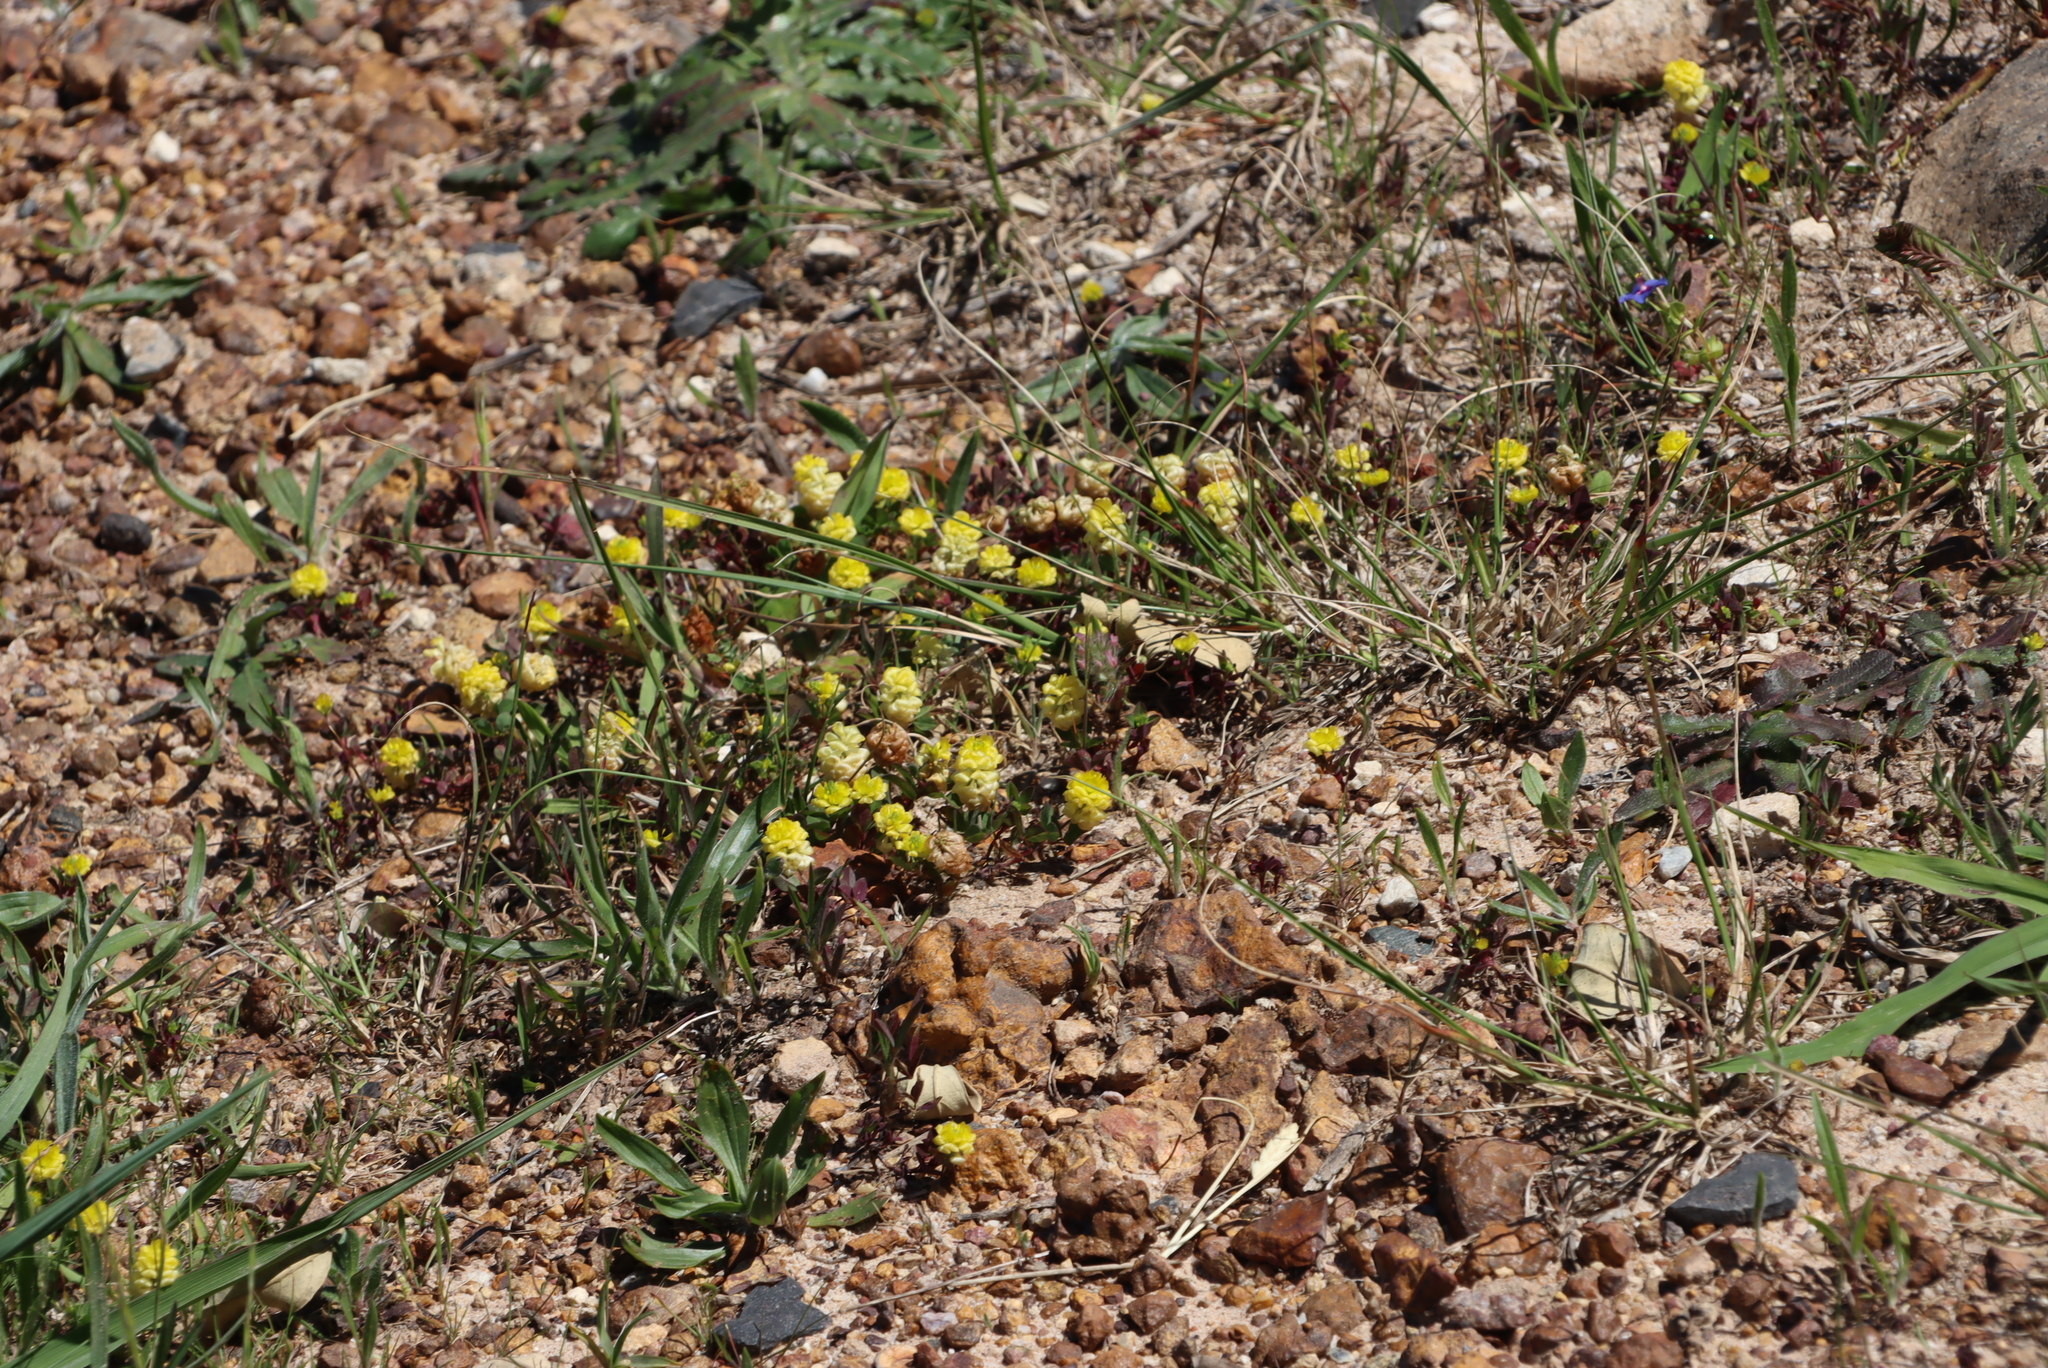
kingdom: Plantae
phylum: Tracheophyta
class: Magnoliopsida
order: Fabales
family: Fabaceae
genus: Trifolium
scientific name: Trifolium campestre
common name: Field clover
